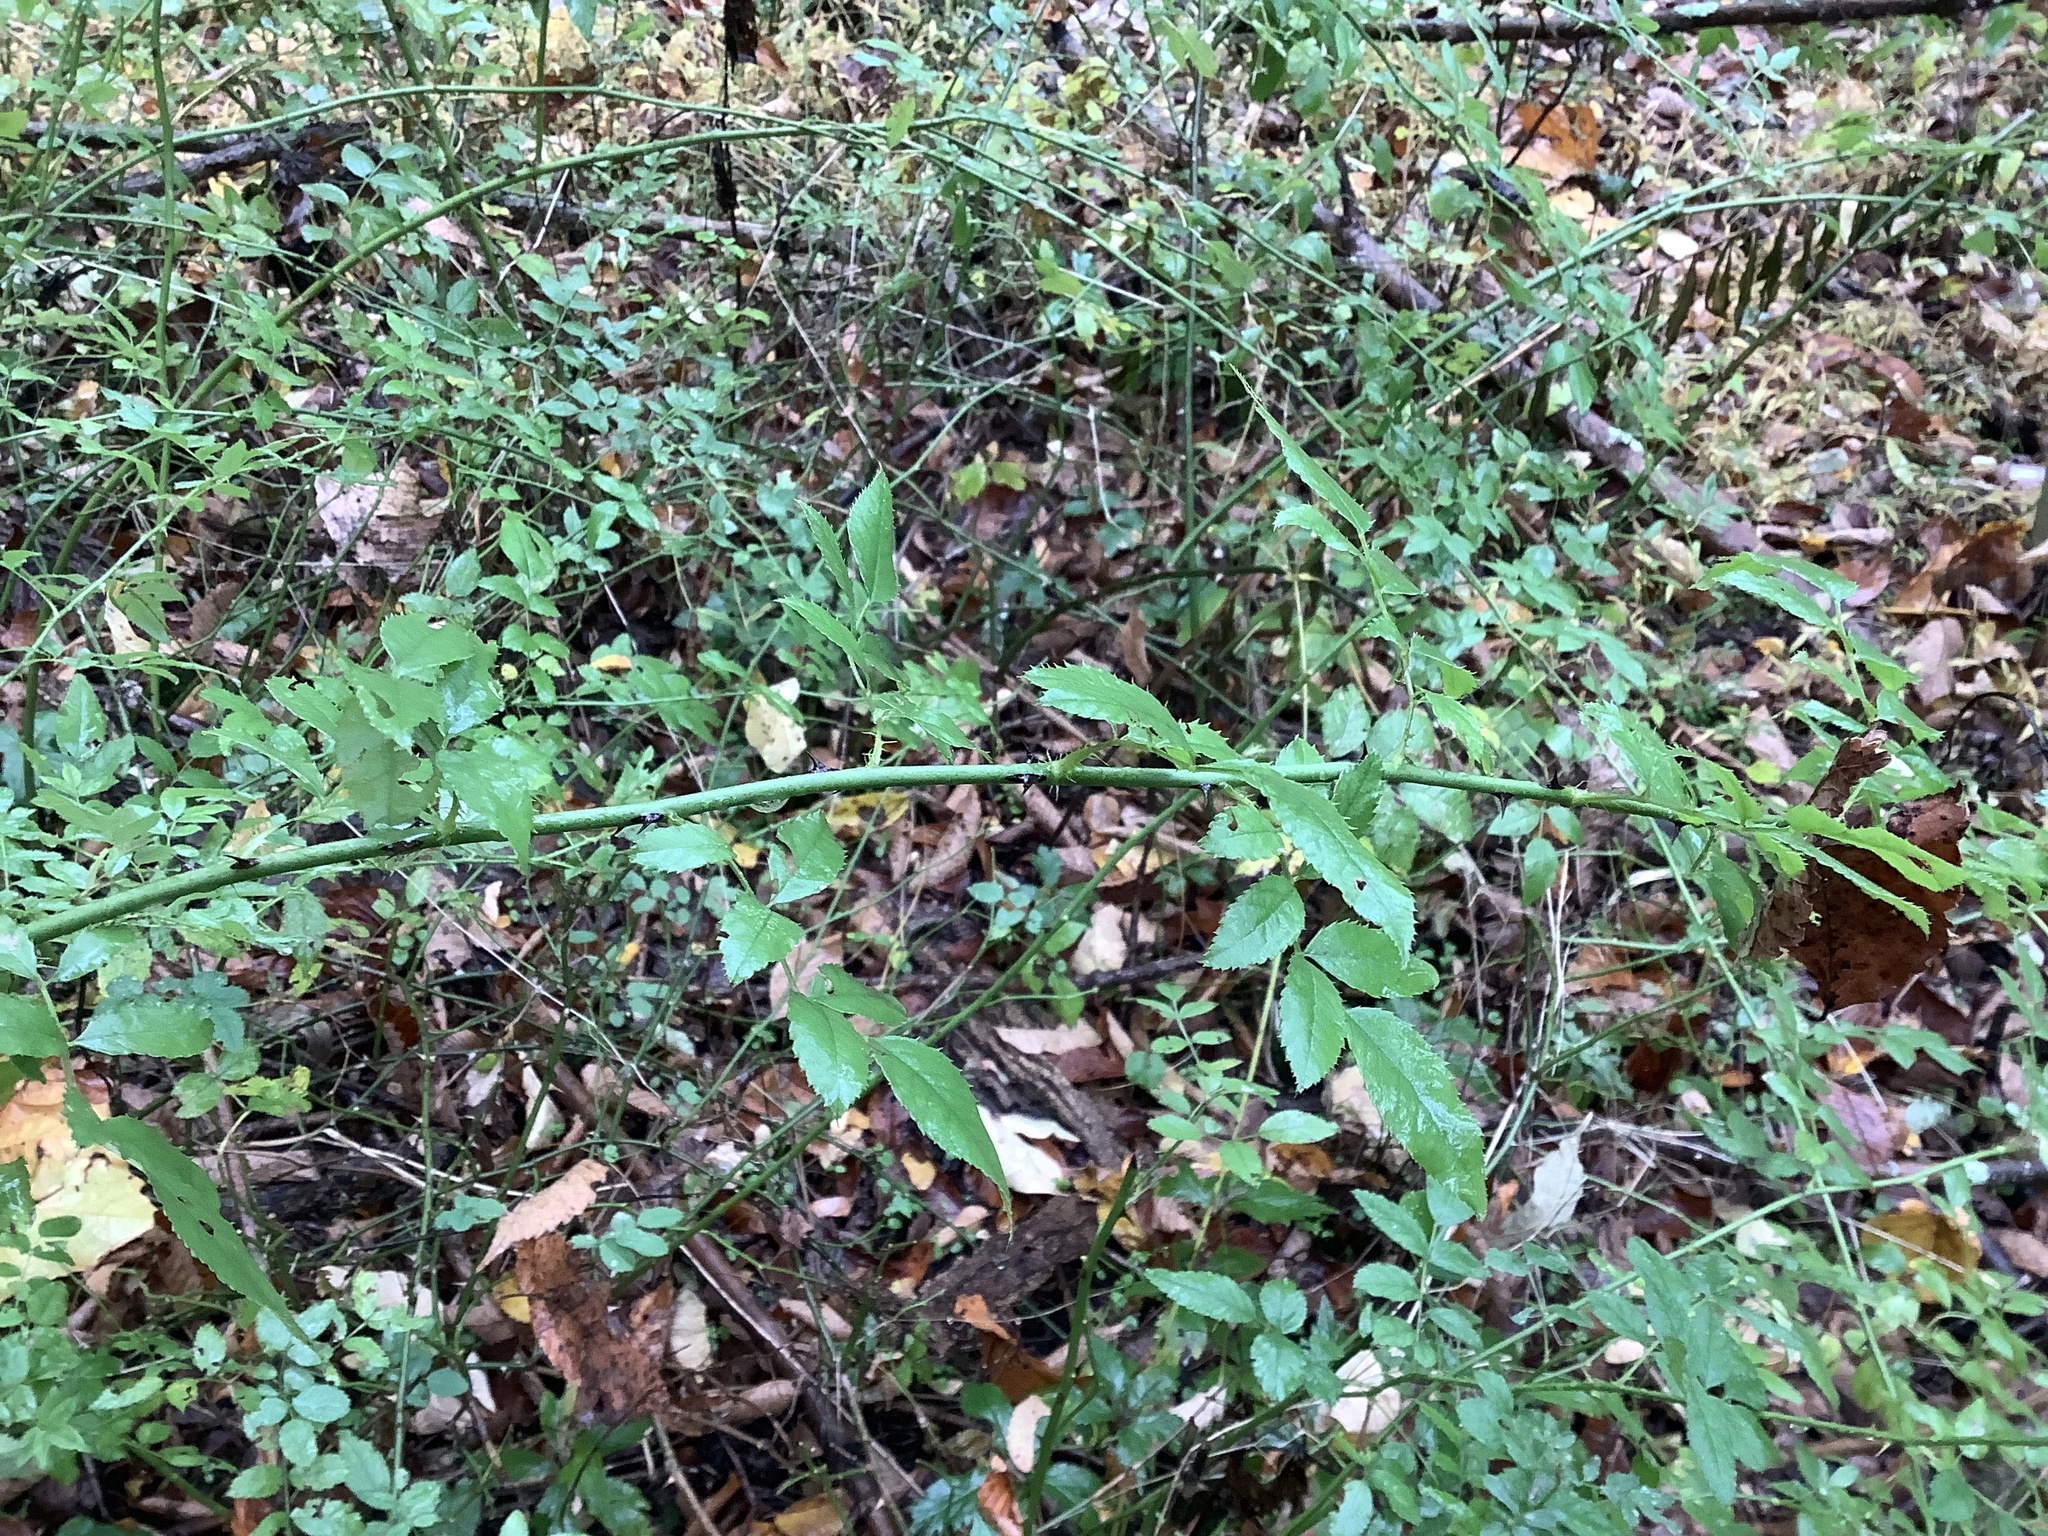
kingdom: Plantae
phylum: Tracheophyta
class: Magnoliopsida
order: Rosales
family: Rosaceae
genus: Rosa
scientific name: Rosa multiflora
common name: Multiflora rose
